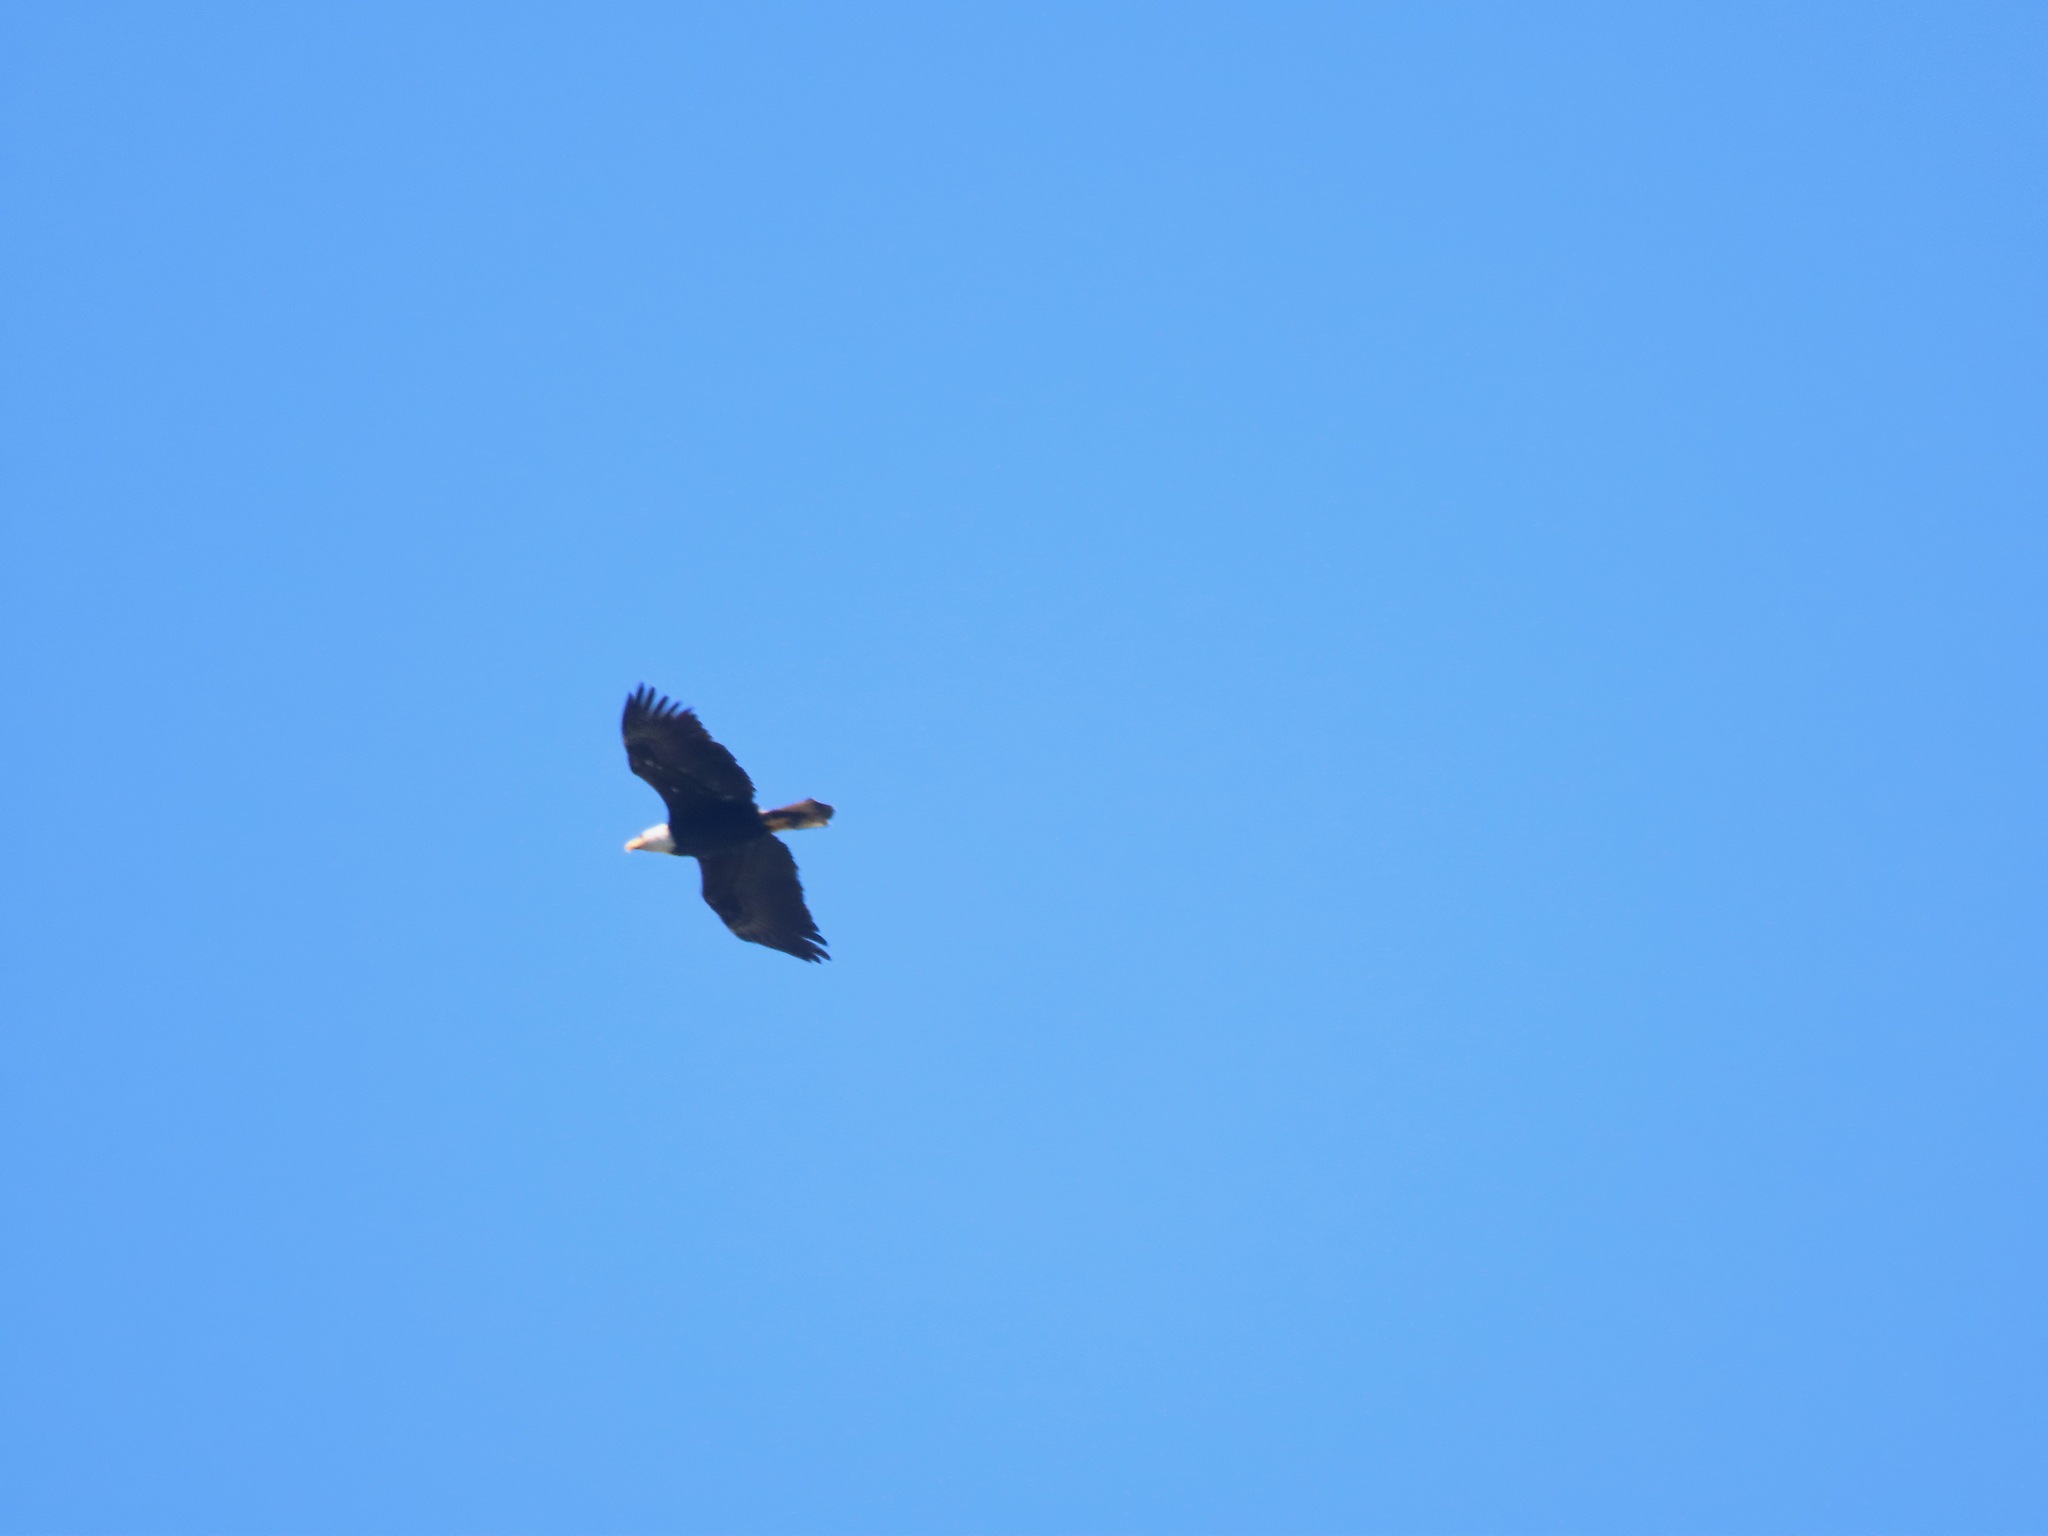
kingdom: Animalia
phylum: Chordata
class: Aves
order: Accipitriformes
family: Accipitridae
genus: Haliaeetus
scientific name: Haliaeetus leucocephalus
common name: Bald eagle
